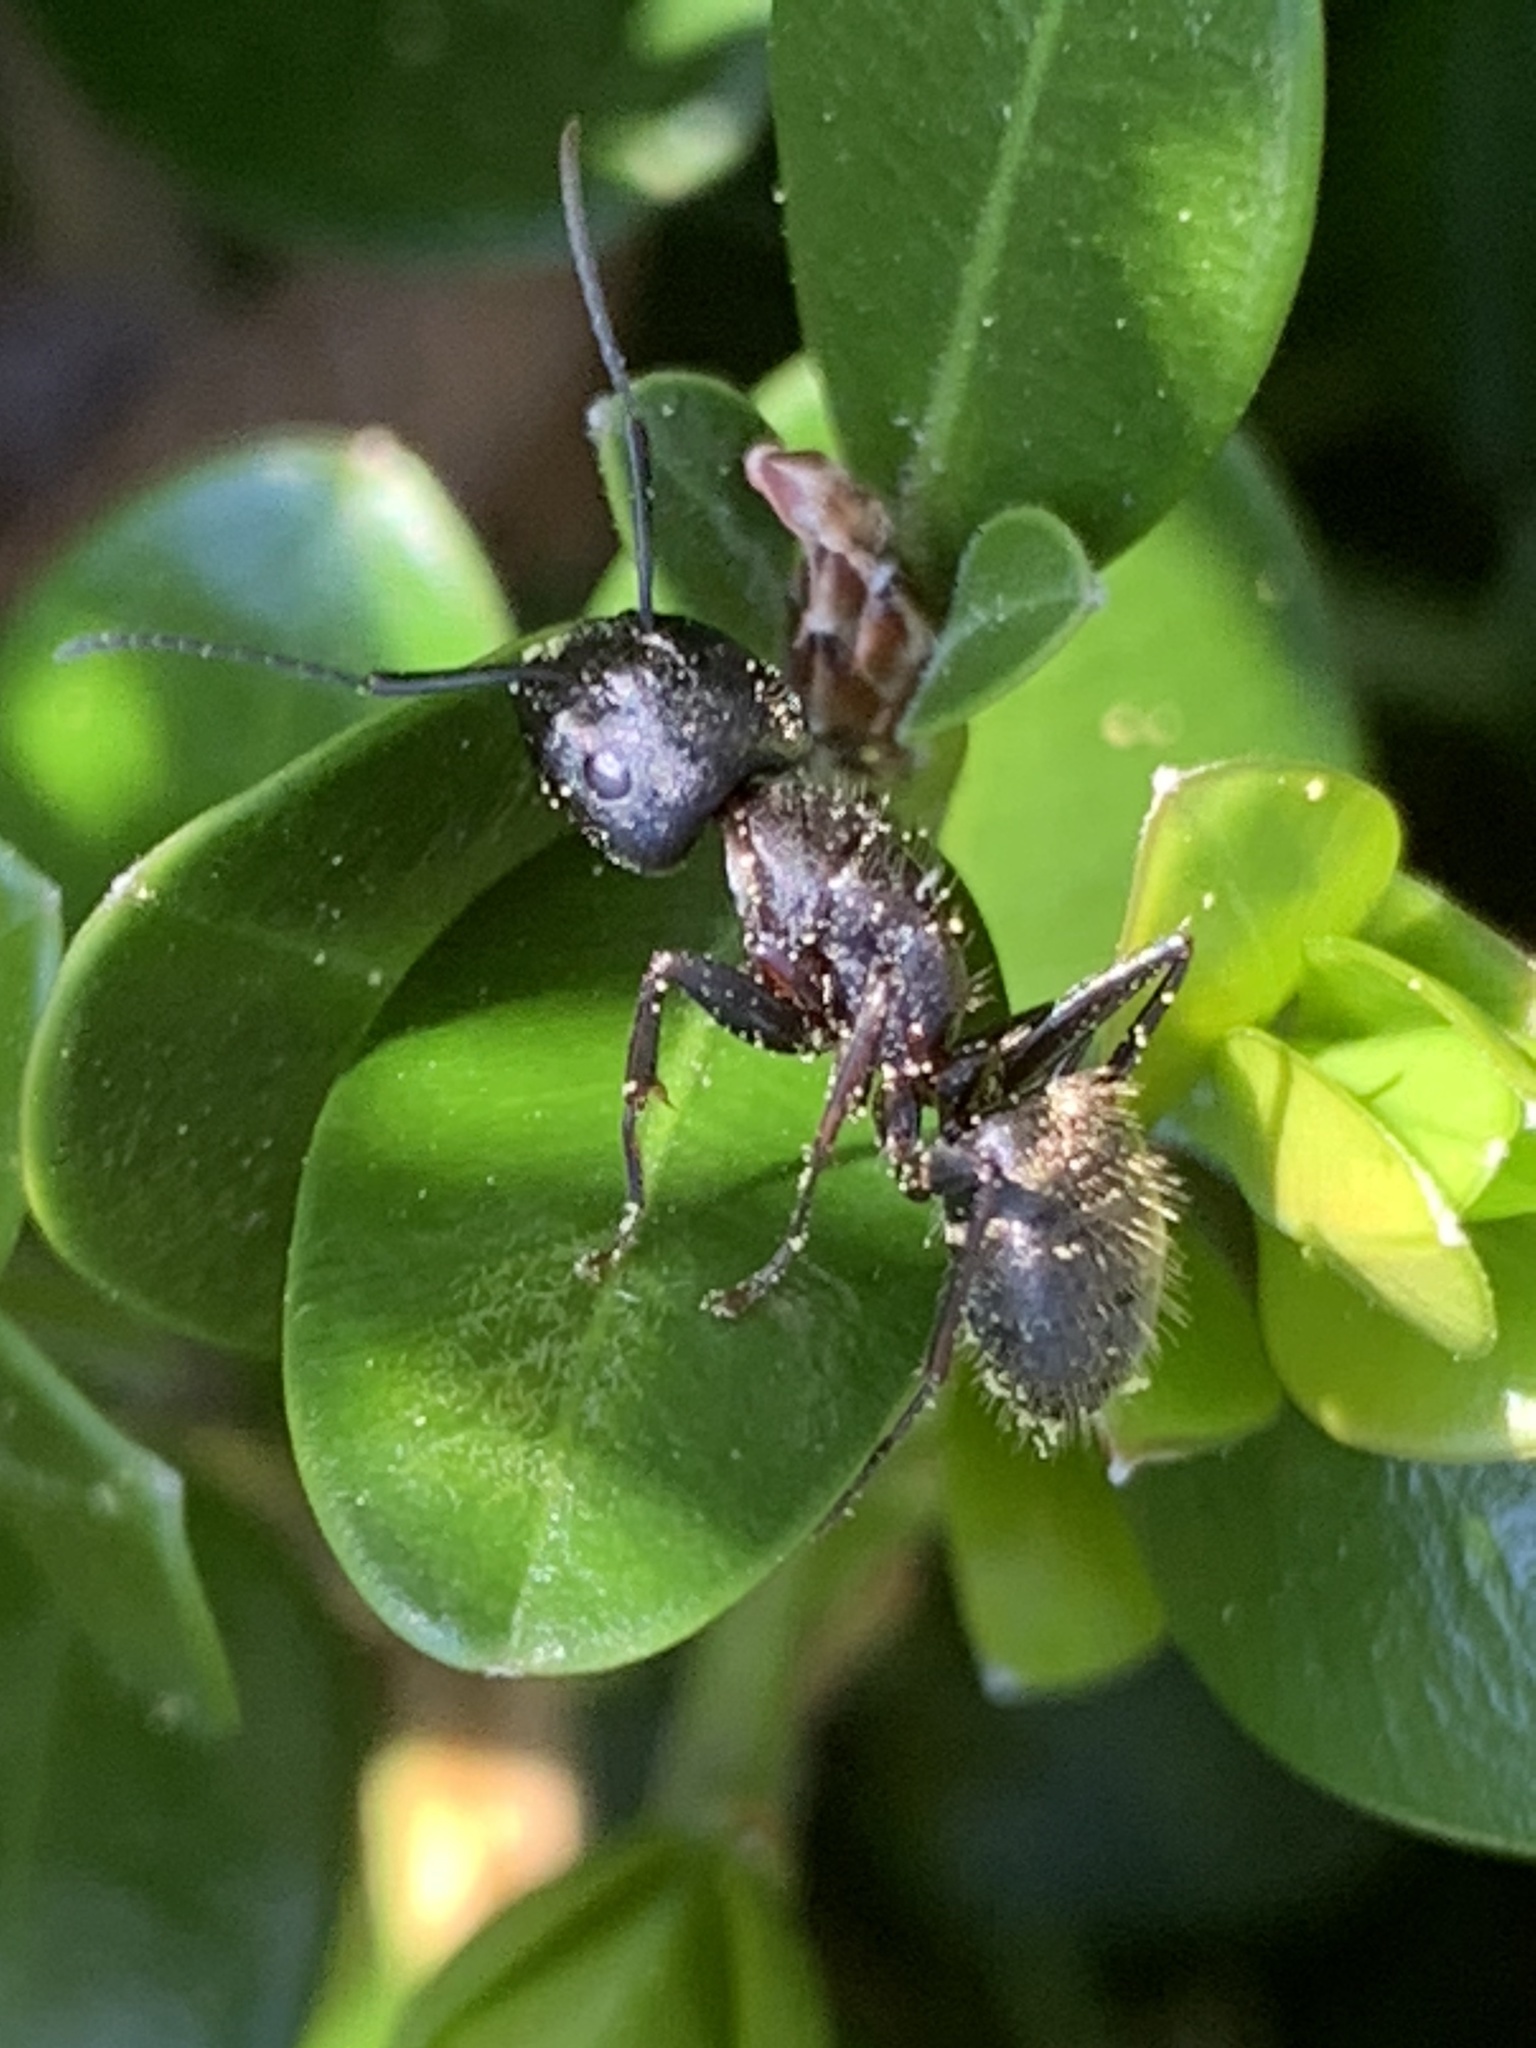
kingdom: Animalia
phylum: Arthropoda
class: Insecta
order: Hymenoptera
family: Formicidae
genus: Camponotus
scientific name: Camponotus pennsylvanicus
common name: Black carpenter ant
